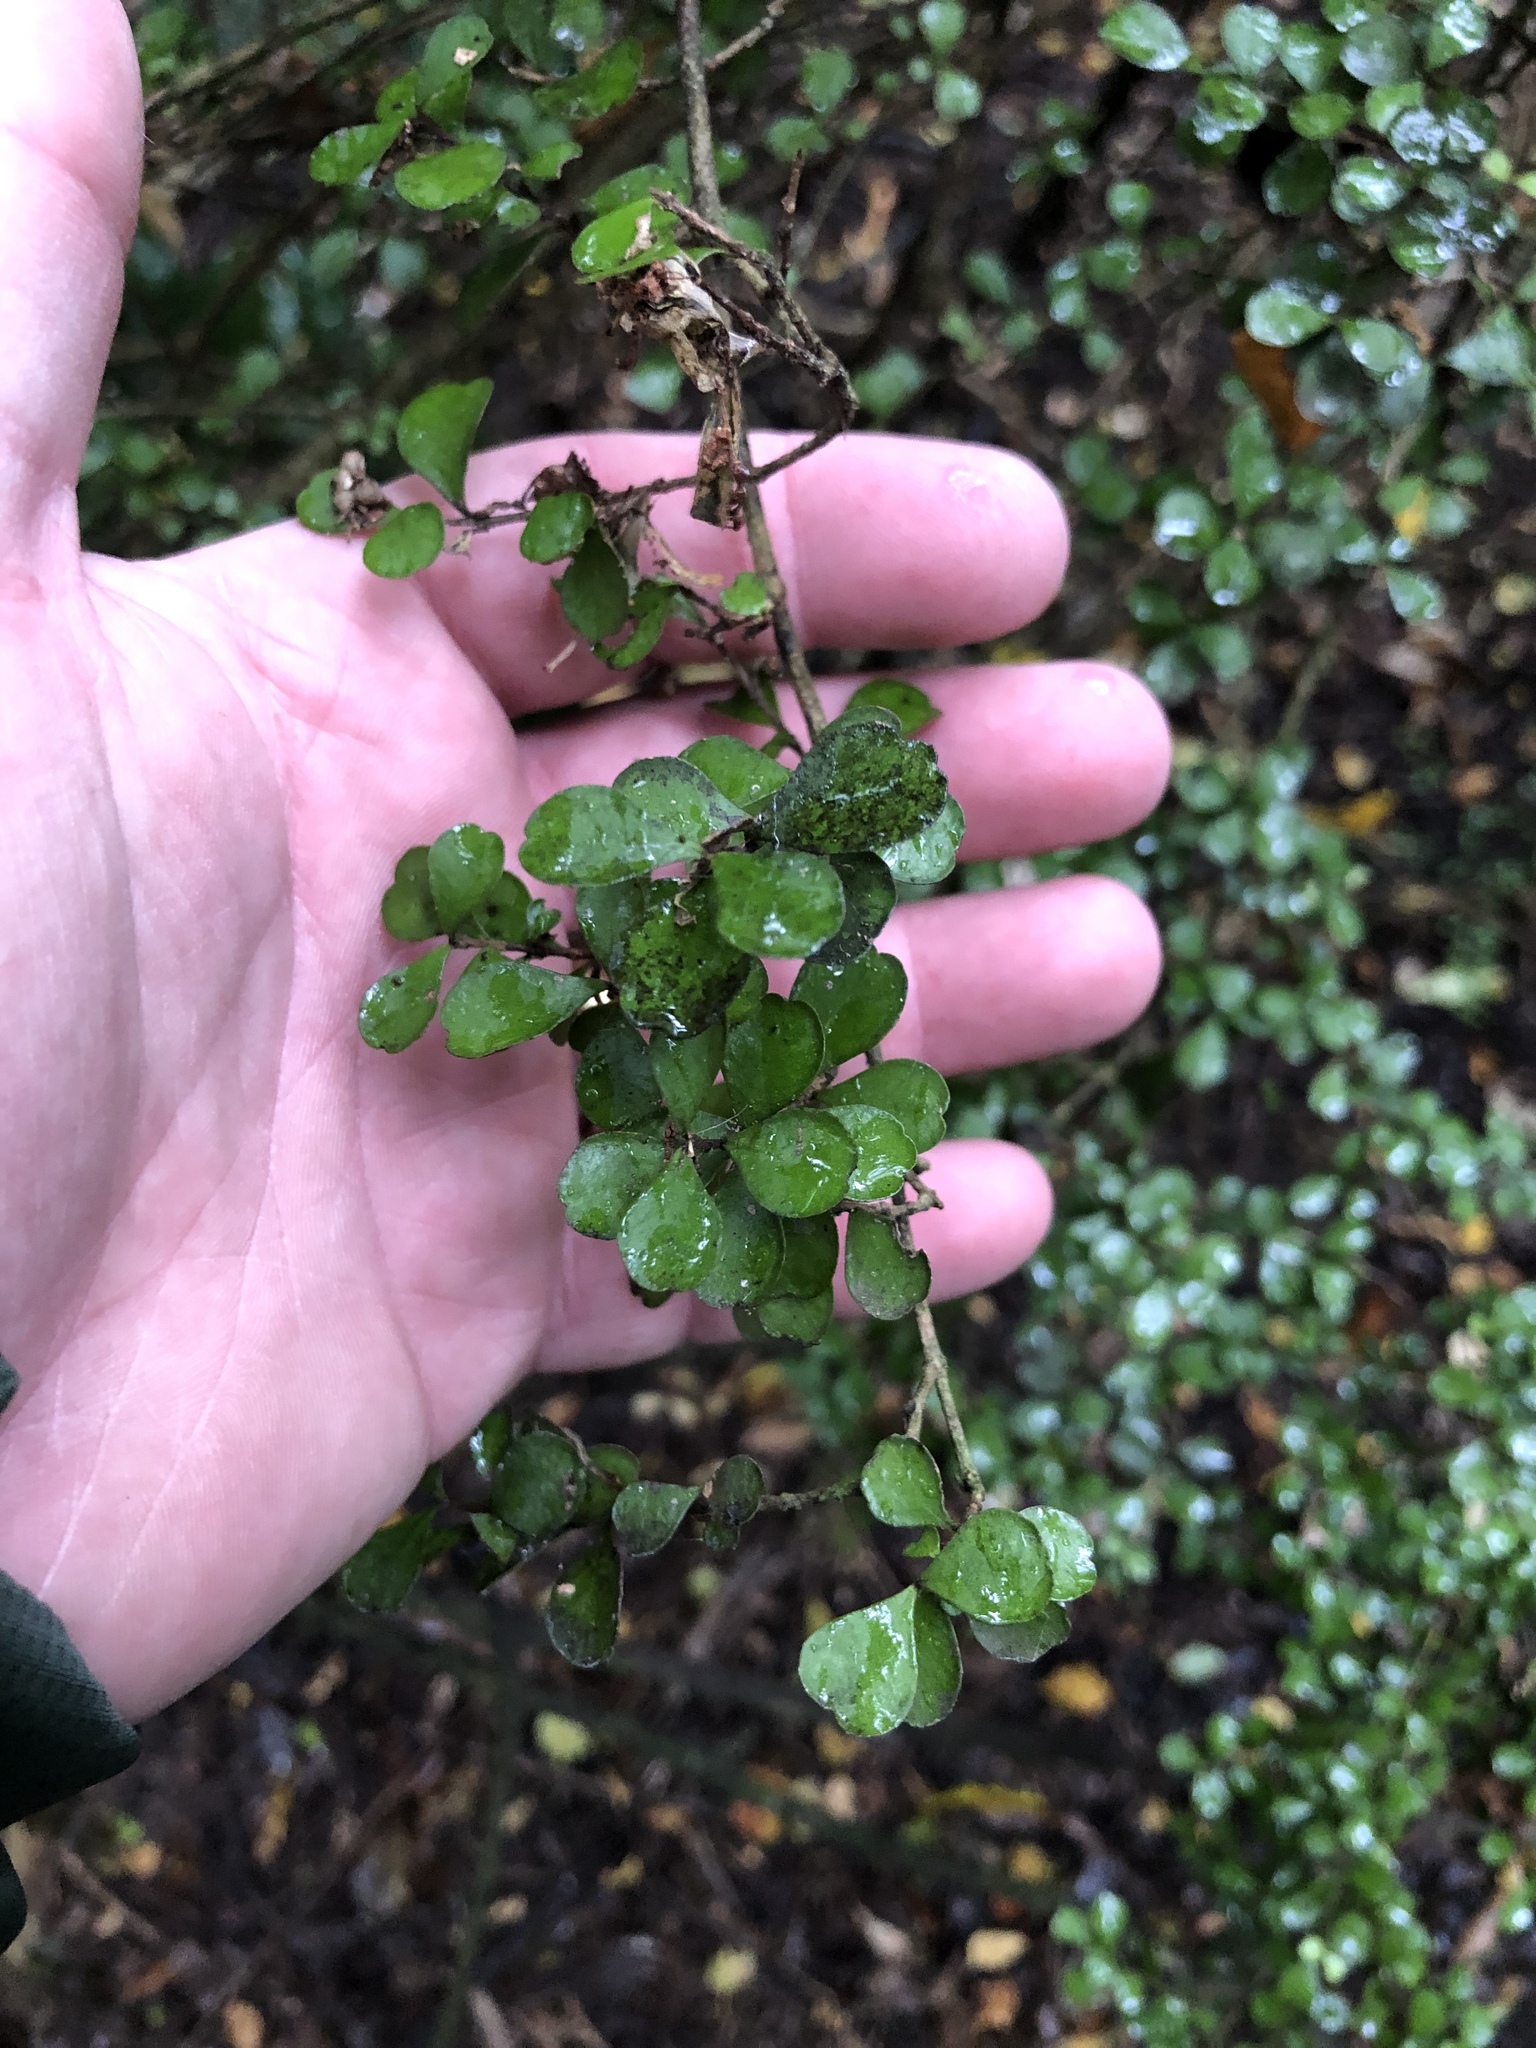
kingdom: Plantae
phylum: Tracheophyta
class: Magnoliopsida
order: Ericales
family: Primulaceae
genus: Myrsine
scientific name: Myrsine divaricata
